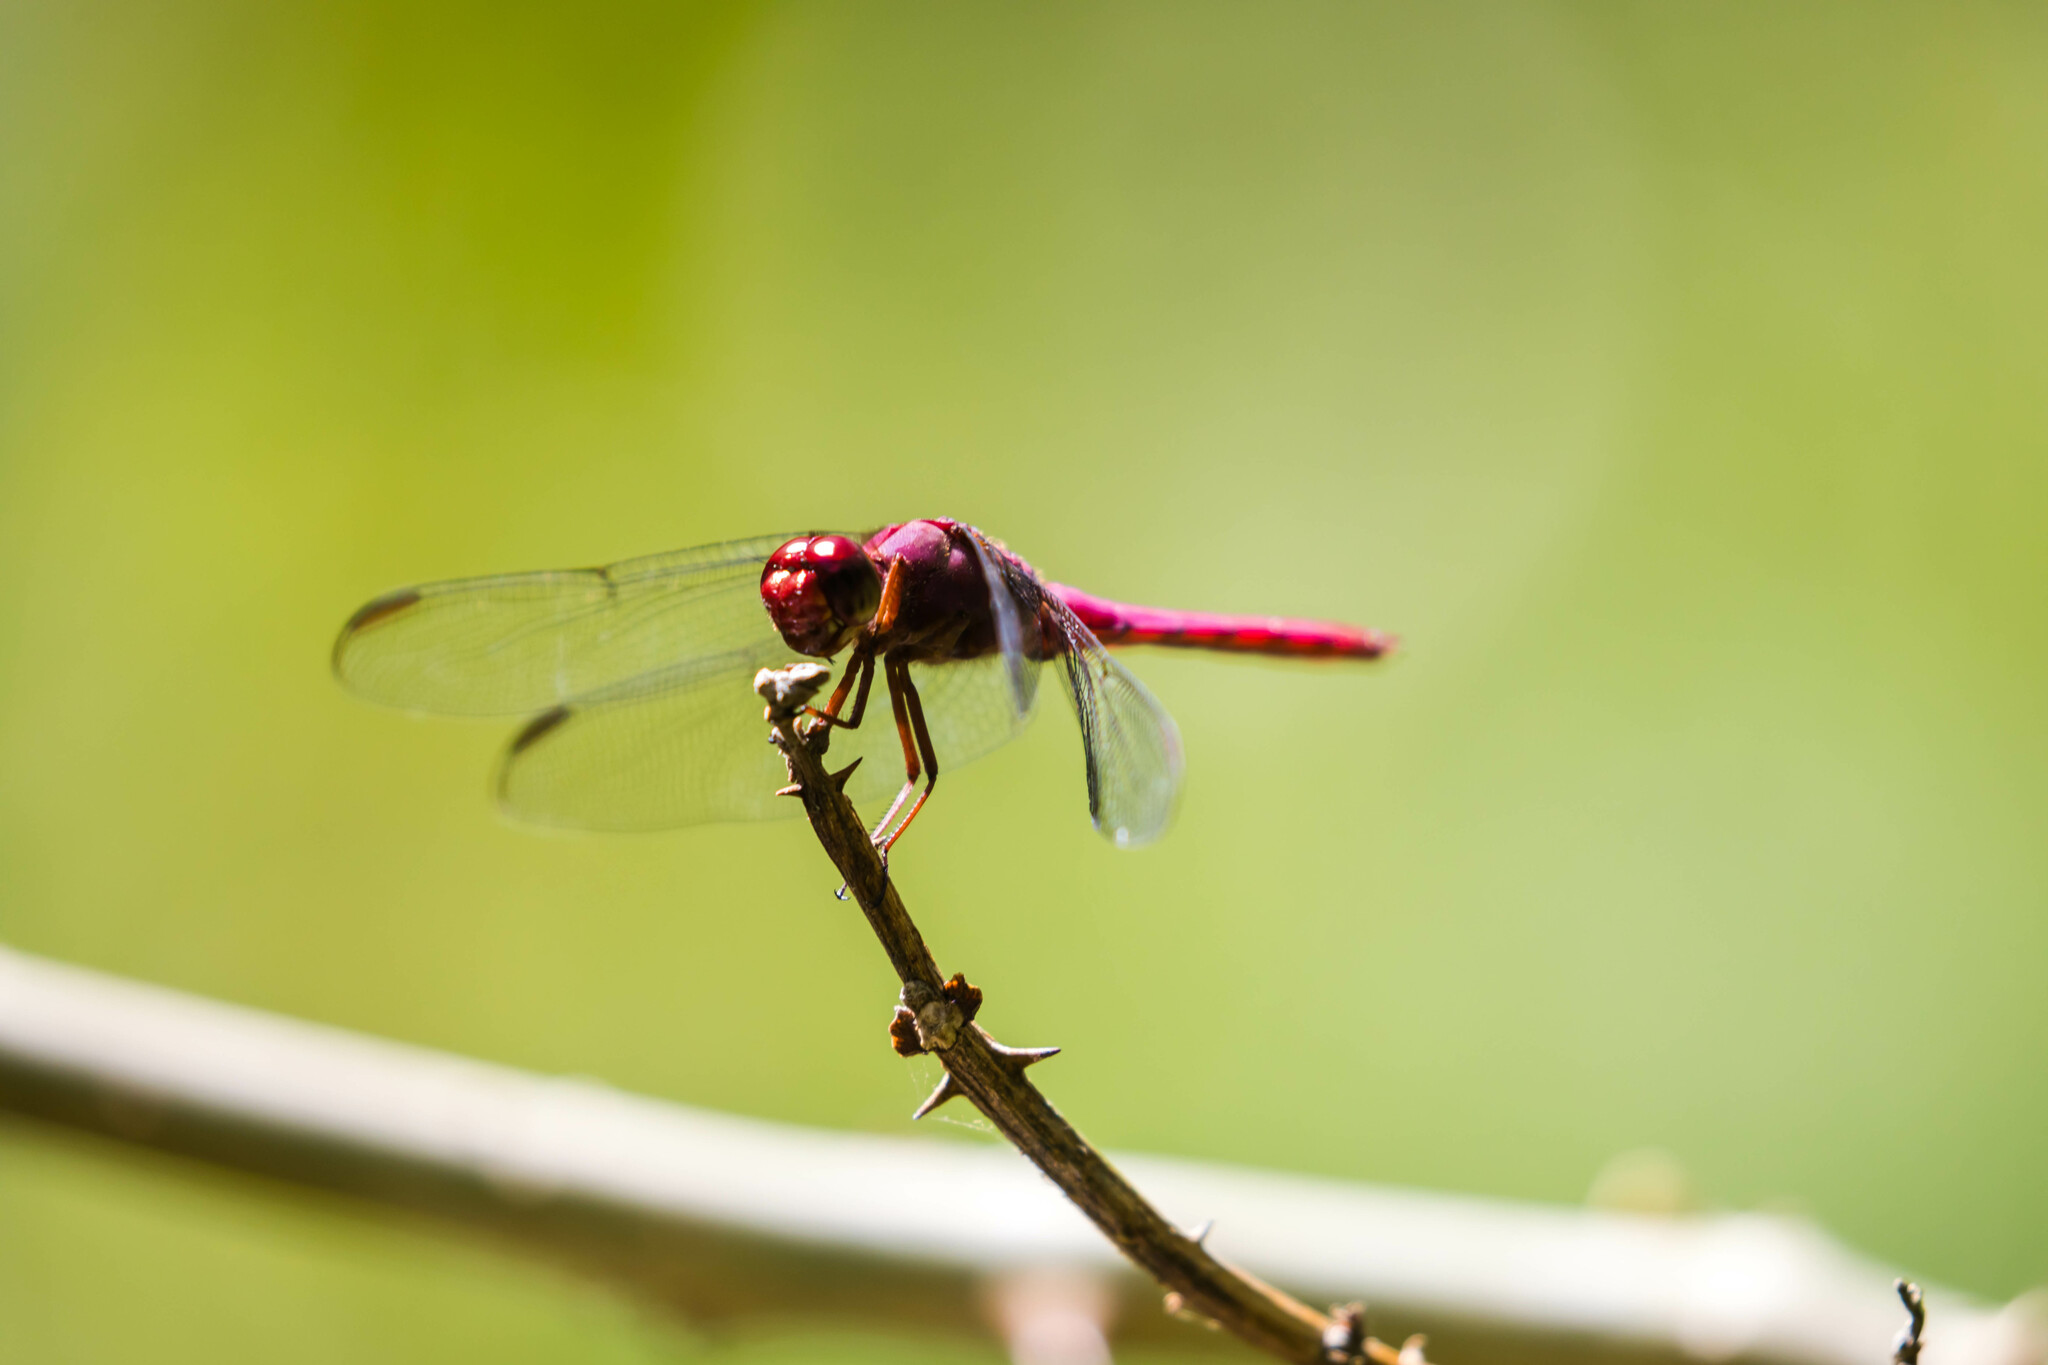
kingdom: Animalia
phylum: Arthropoda
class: Insecta
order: Odonata
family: Libellulidae
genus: Orthemis
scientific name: Orthemis discolor
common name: Carmine skimmer
